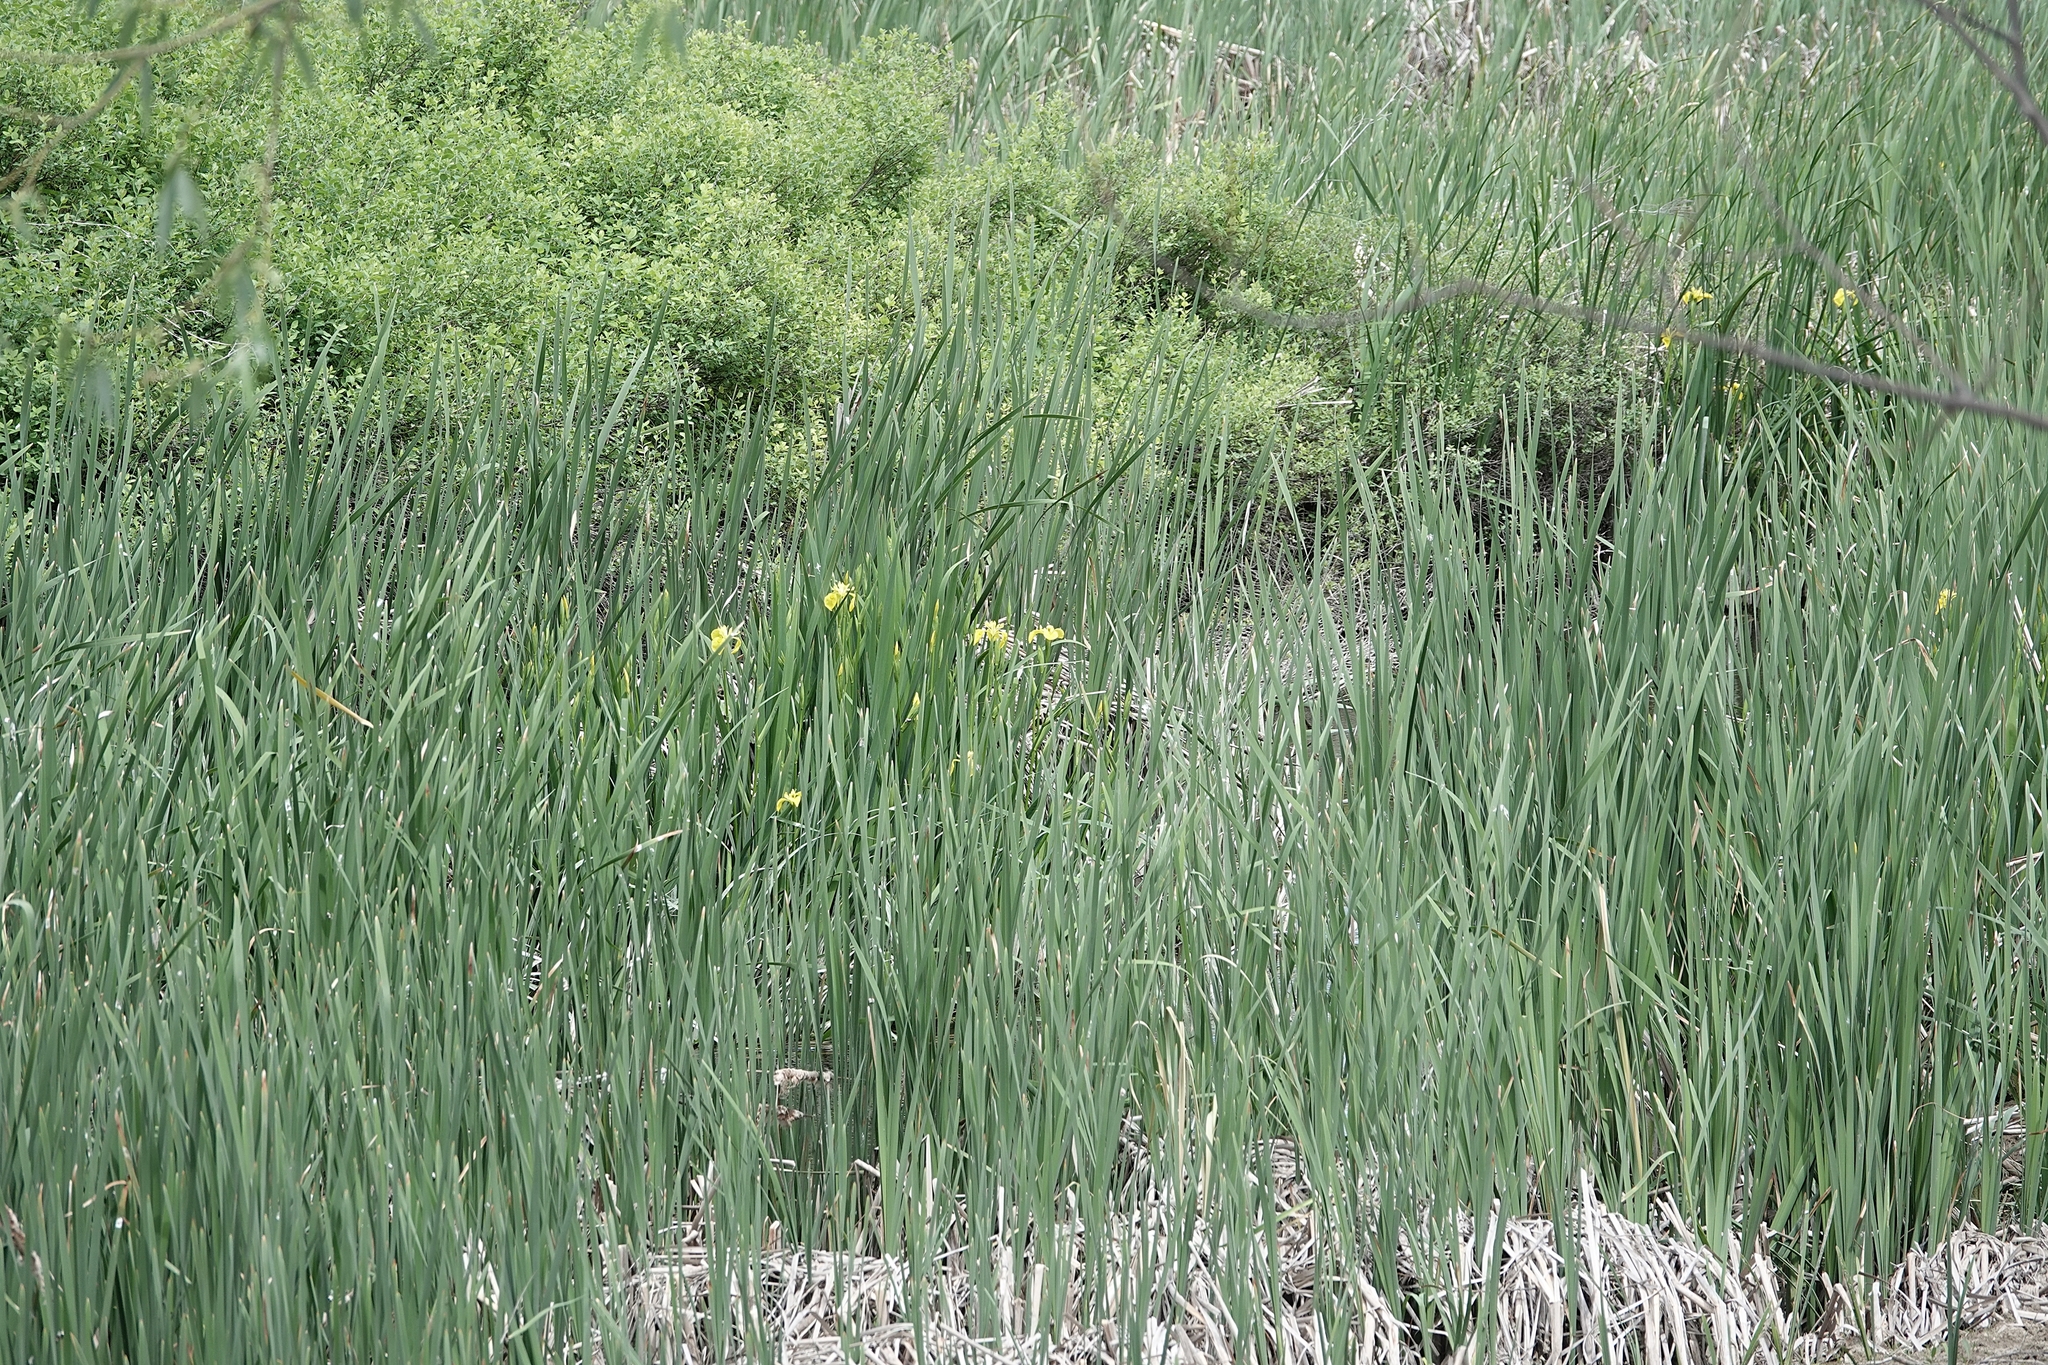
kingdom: Plantae
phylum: Tracheophyta
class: Liliopsida
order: Asparagales
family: Iridaceae
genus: Iris
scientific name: Iris pseudacorus
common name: Yellow flag
